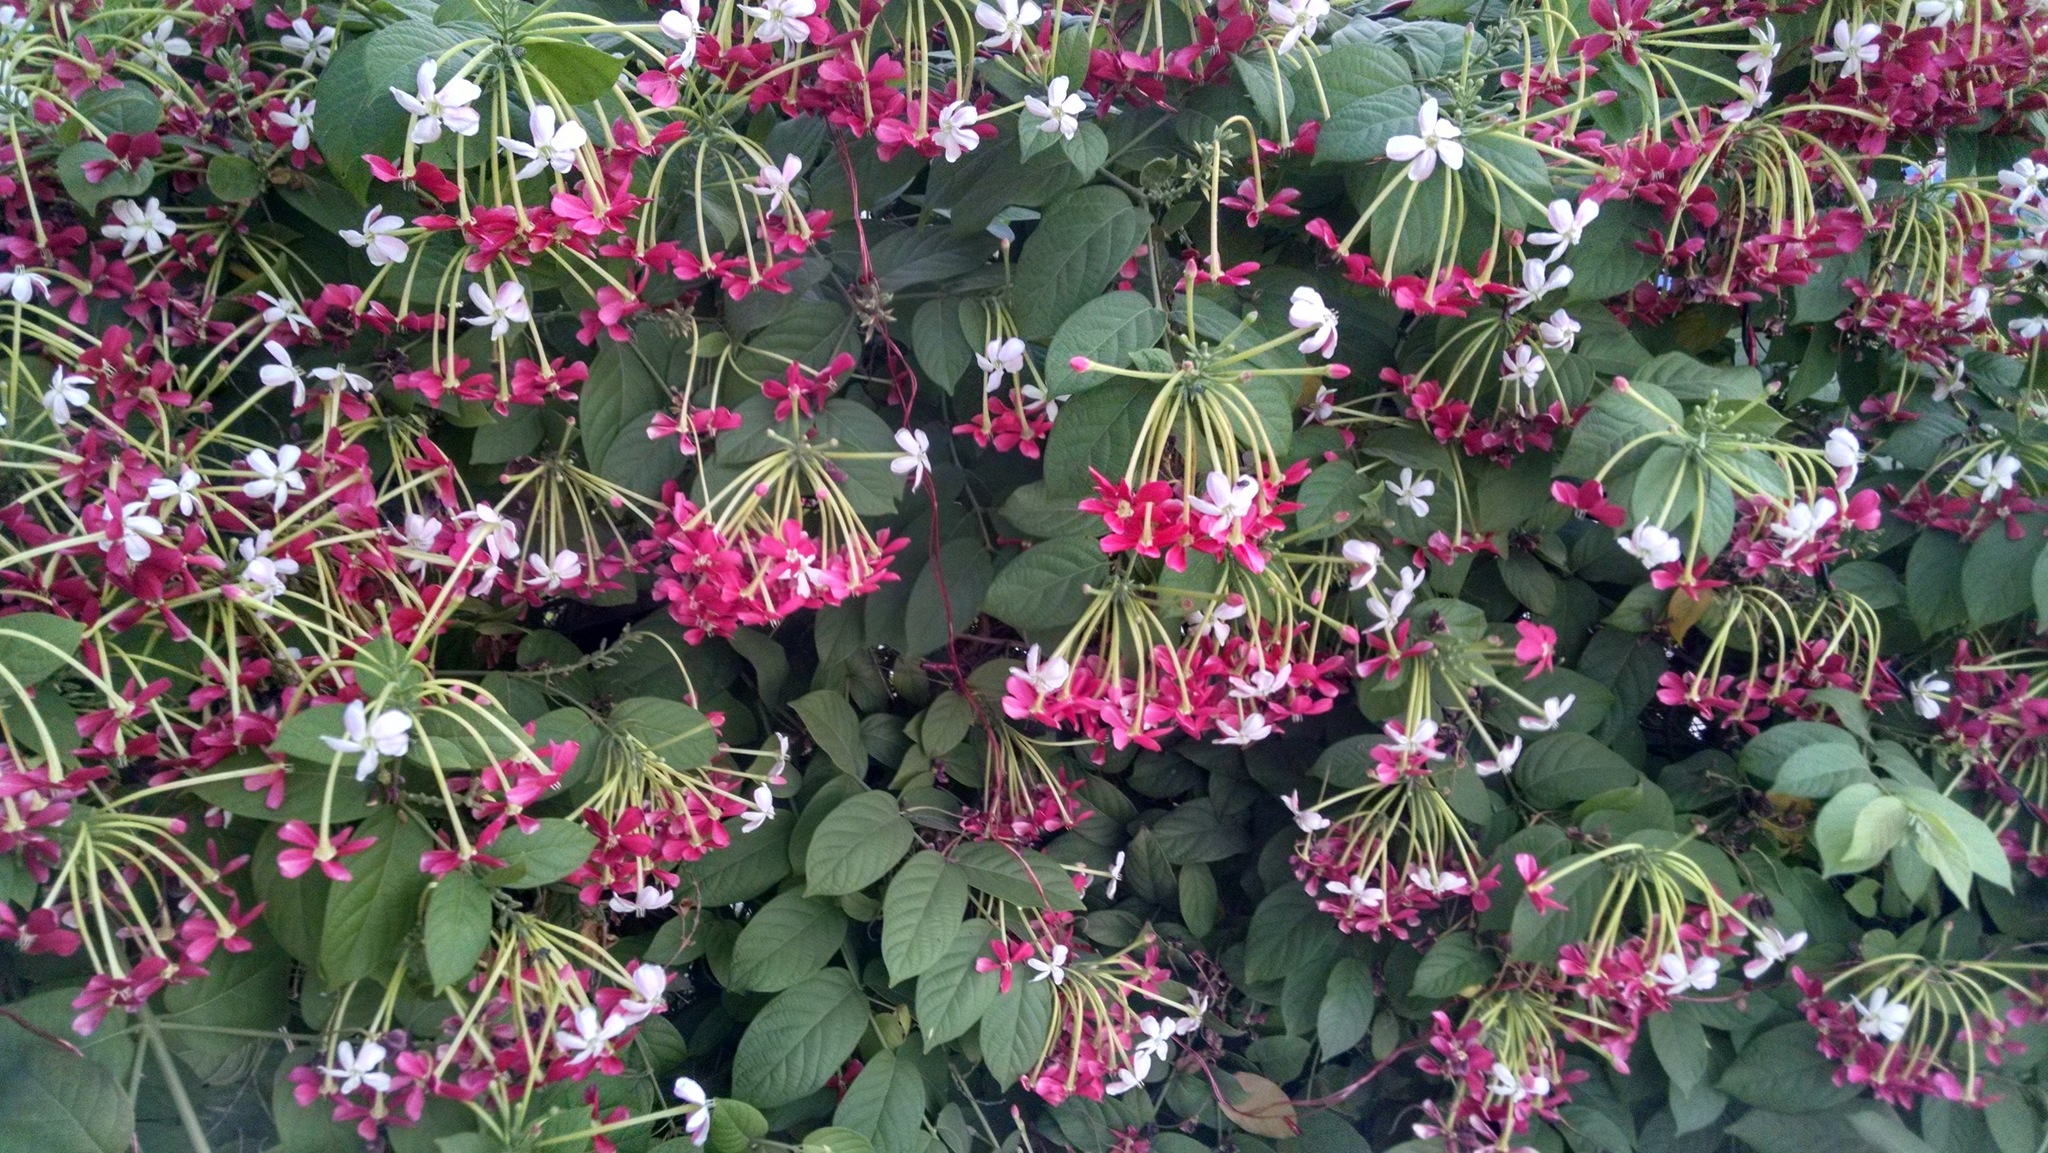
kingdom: Plantae
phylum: Tracheophyta
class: Magnoliopsida
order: Myrtales
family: Combretaceae
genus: Combretum
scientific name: Combretum indicum
